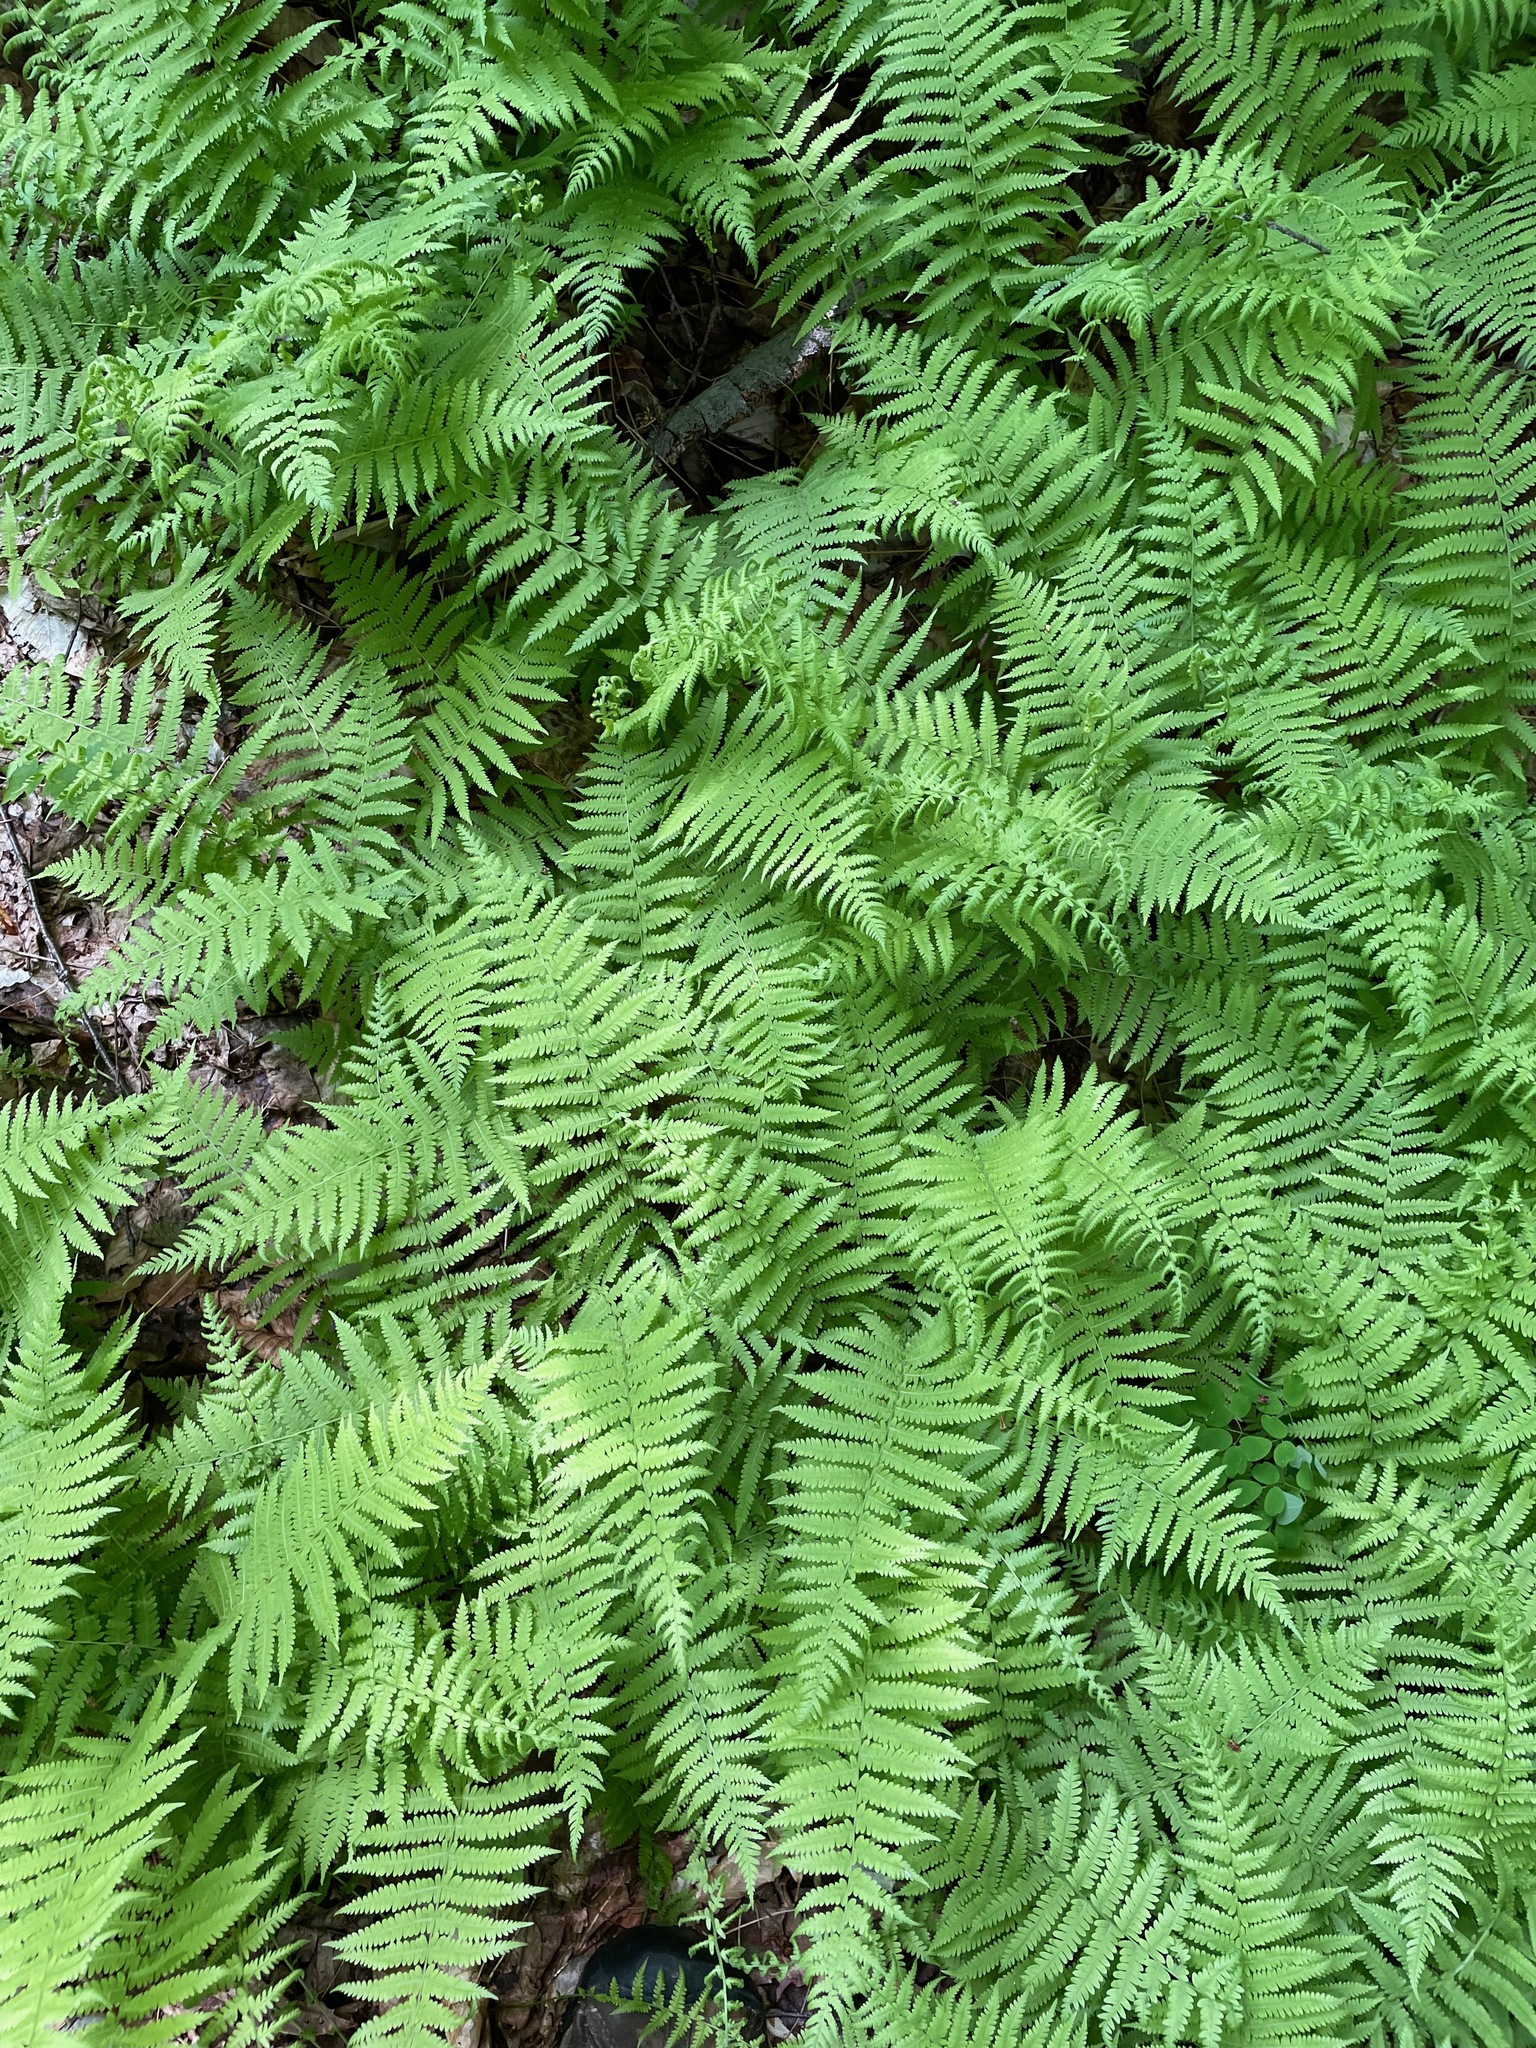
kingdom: Plantae
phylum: Tracheophyta
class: Polypodiopsida
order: Polypodiales
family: Thelypteridaceae
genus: Amauropelta
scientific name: Amauropelta noveboracensis
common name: New york fern
